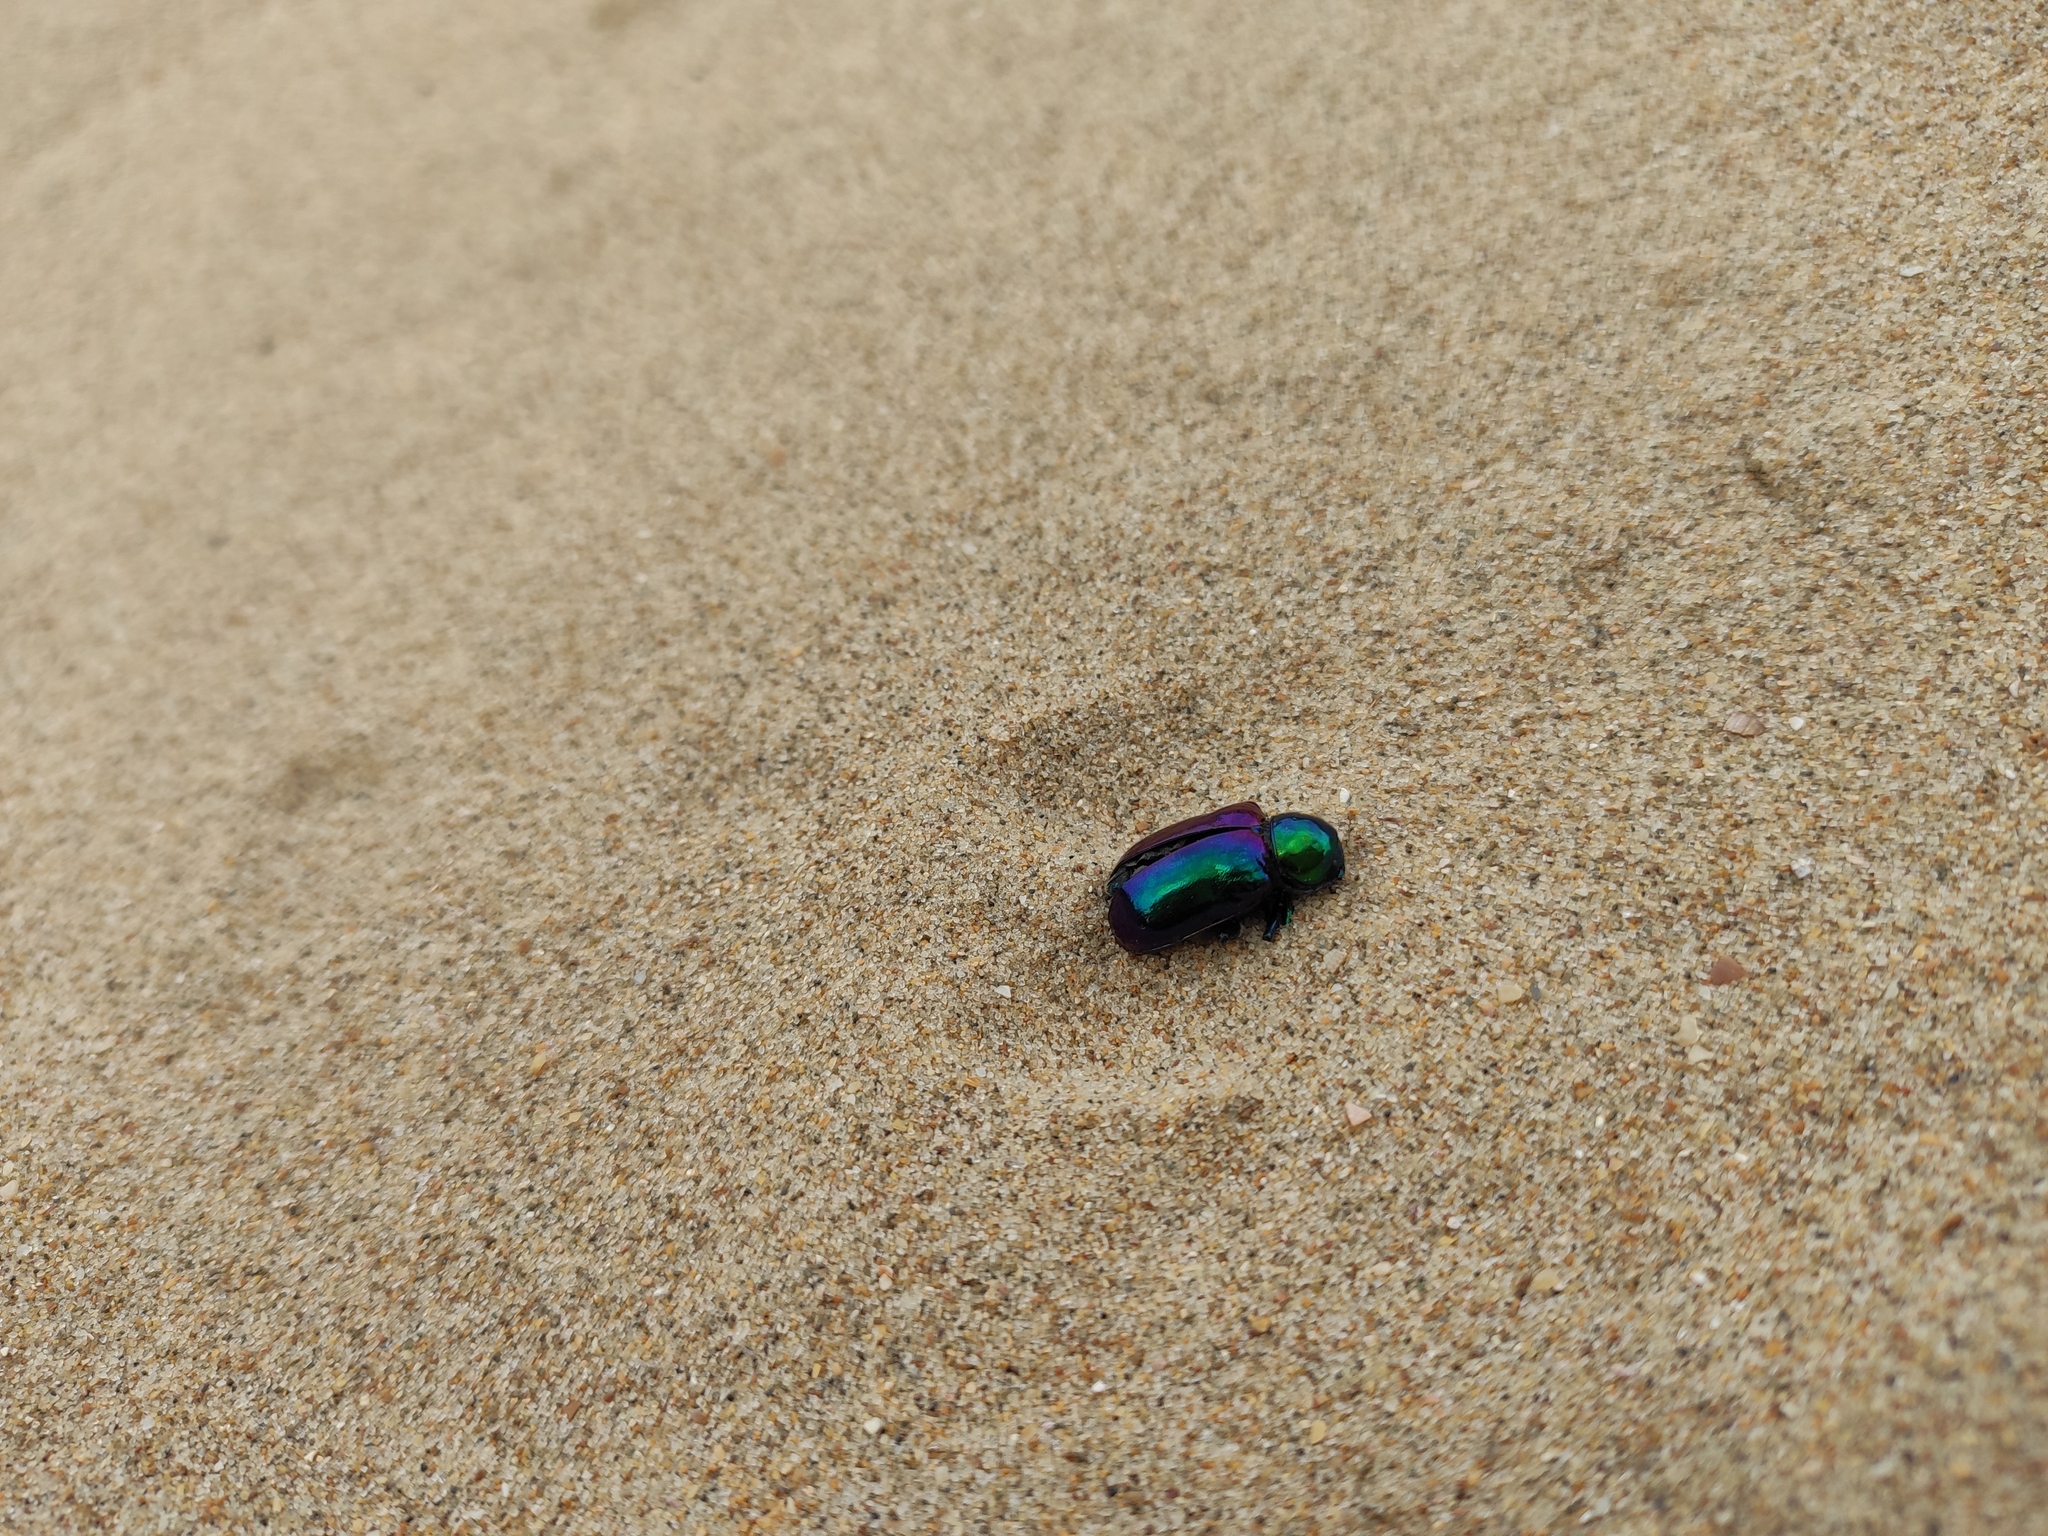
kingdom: Animalia
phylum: Arthropoda
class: Insecta
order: Coleoptera
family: Chrysomelidae
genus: Chrysochares
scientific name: Chrysochares
